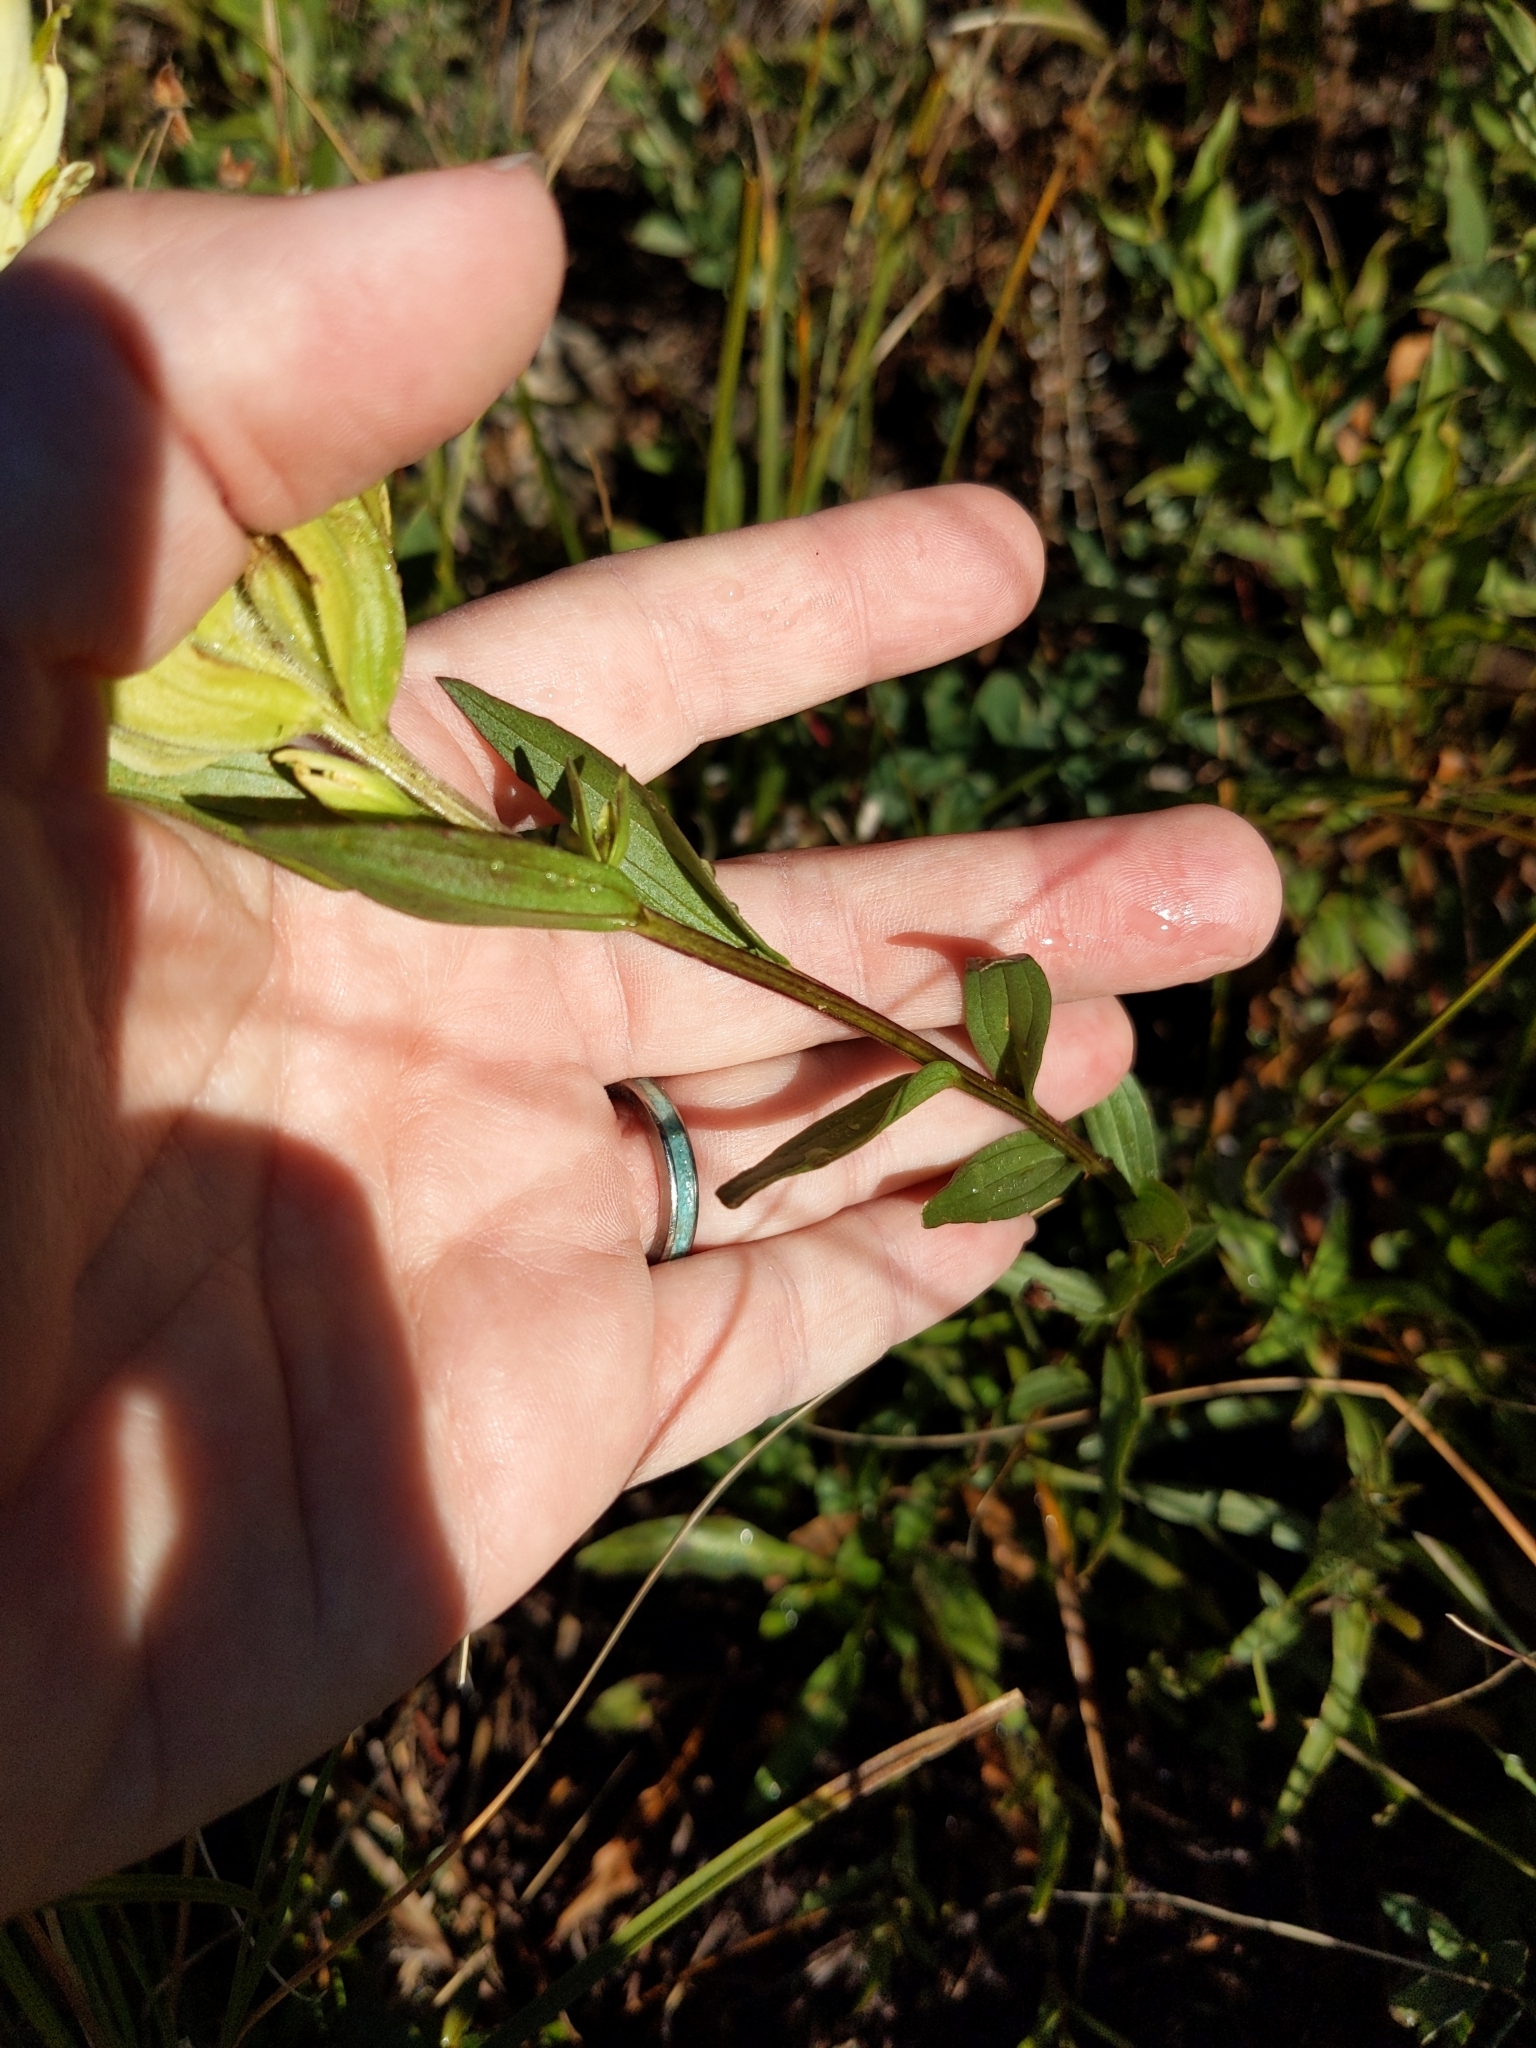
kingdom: Plantae
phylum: Tracheophyta
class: Magnoliopsida
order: Lamiales
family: Orobanchaceae
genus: Castilleja
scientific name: Castilleja septentrionalis
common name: Northeastern paintbrush
